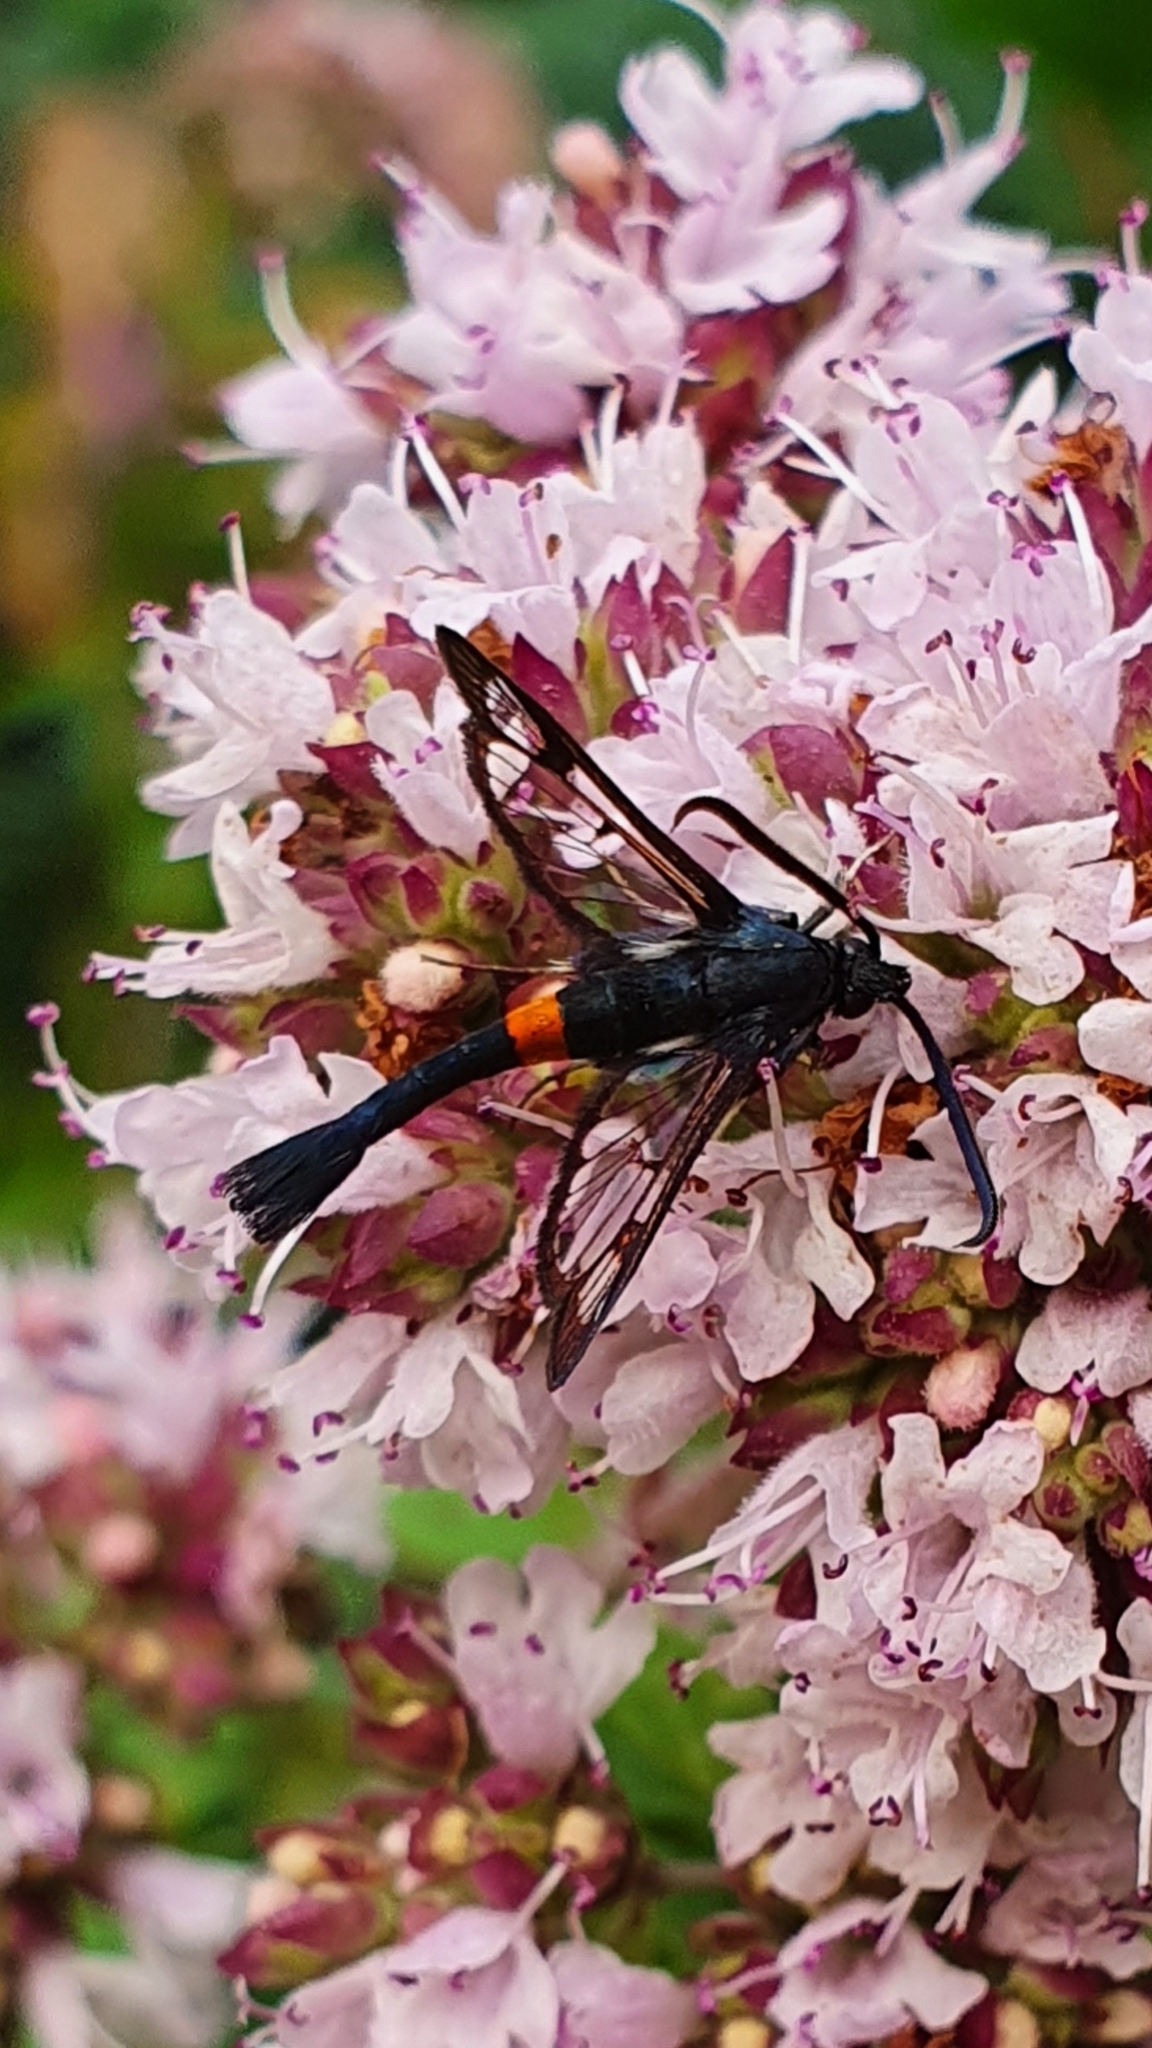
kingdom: Animalia
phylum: Arthropoda
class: Insecta
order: Lepidoptera
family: Sesiidae
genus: Synanthedon
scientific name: Synanthedon myopaeformis
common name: Red-belted clearwing
